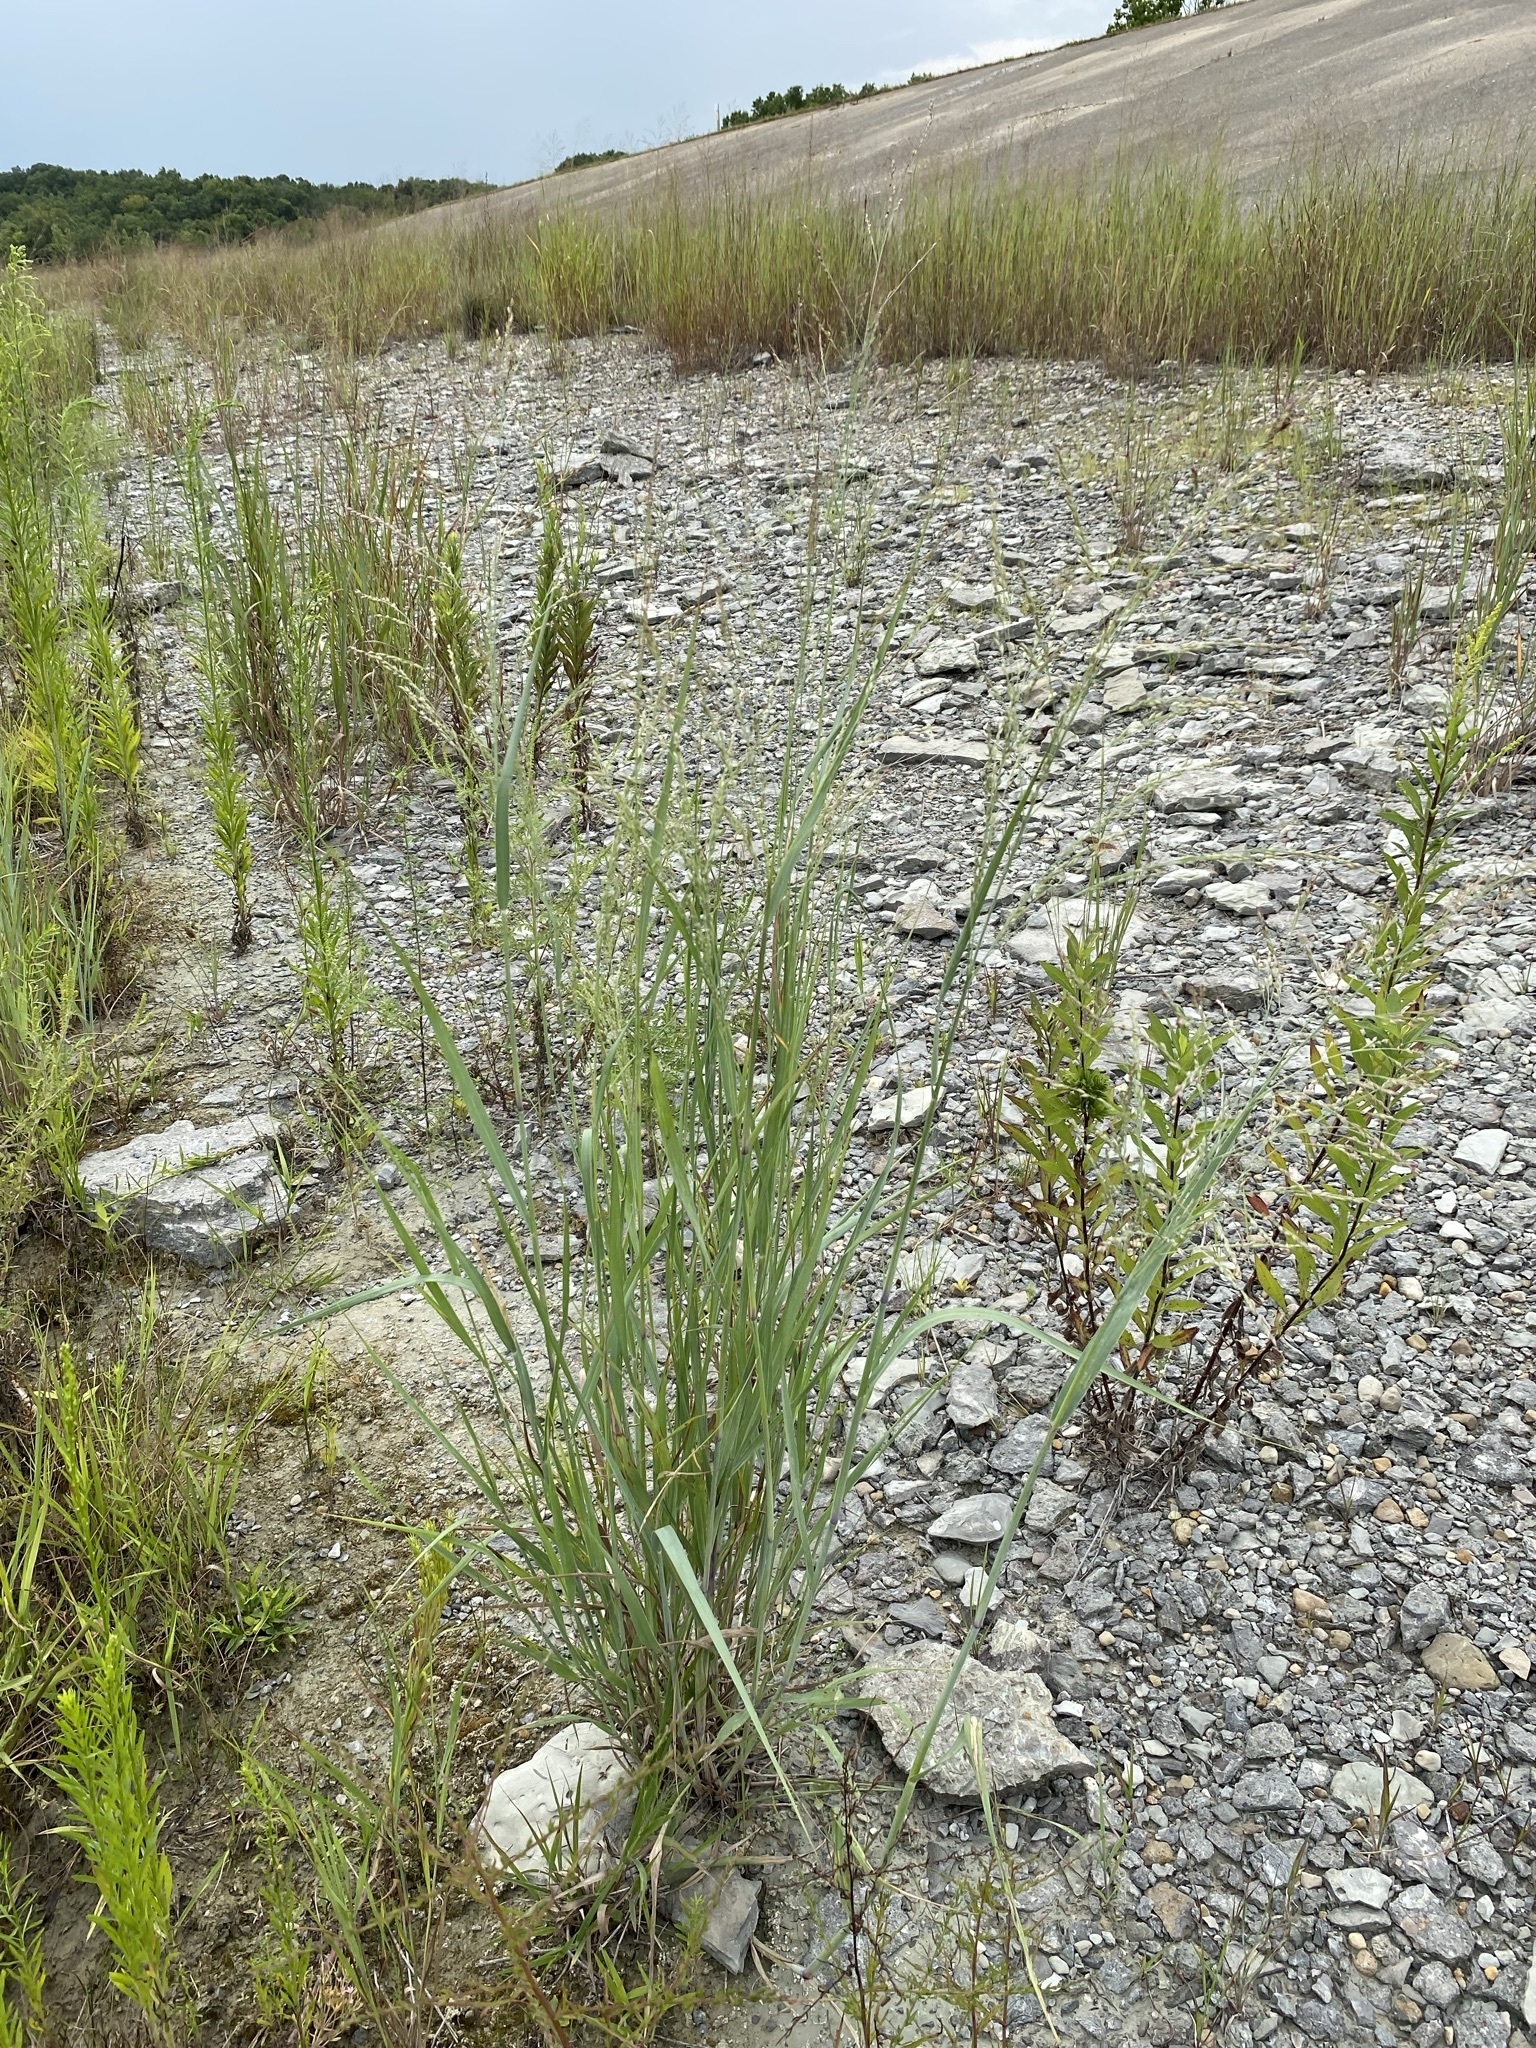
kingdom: Plantae
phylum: Tracheophyta
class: Liliopsida
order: Poales
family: Poaceae
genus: Panicum
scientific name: Panicum virgatum
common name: Switchgrass
